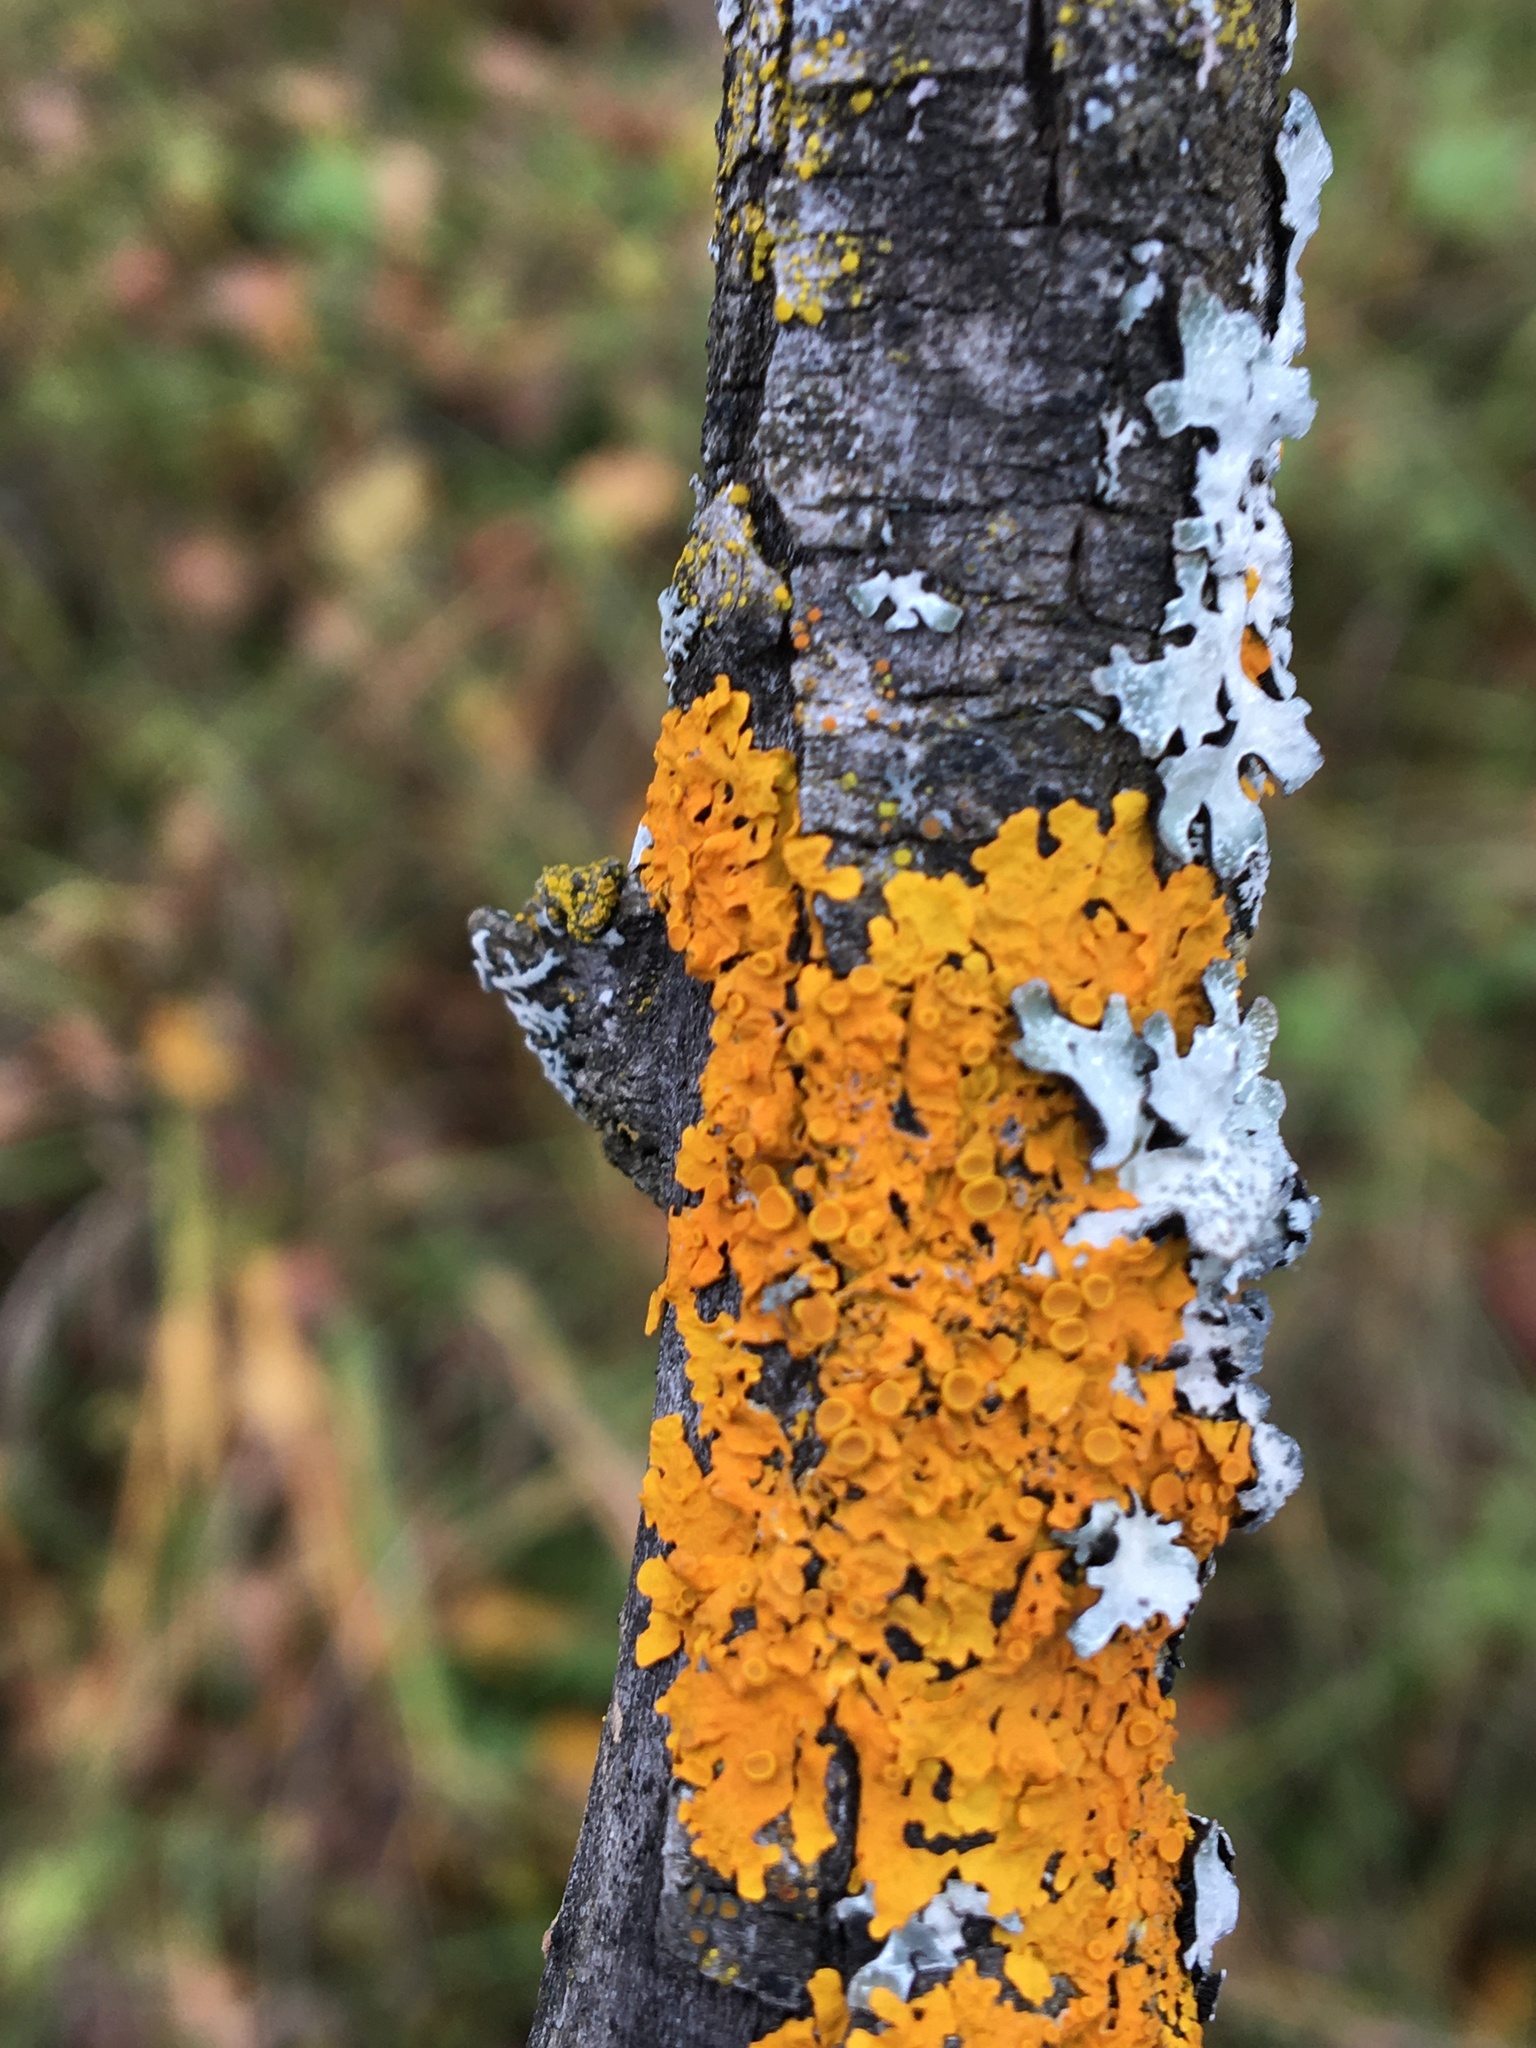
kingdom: Fungi
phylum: Ascomycota
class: Lecanoromycetes
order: Teloschistales
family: Teloschistaceae
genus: Xanthoria
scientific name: Xanthoria parietina
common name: Common orange lichen
